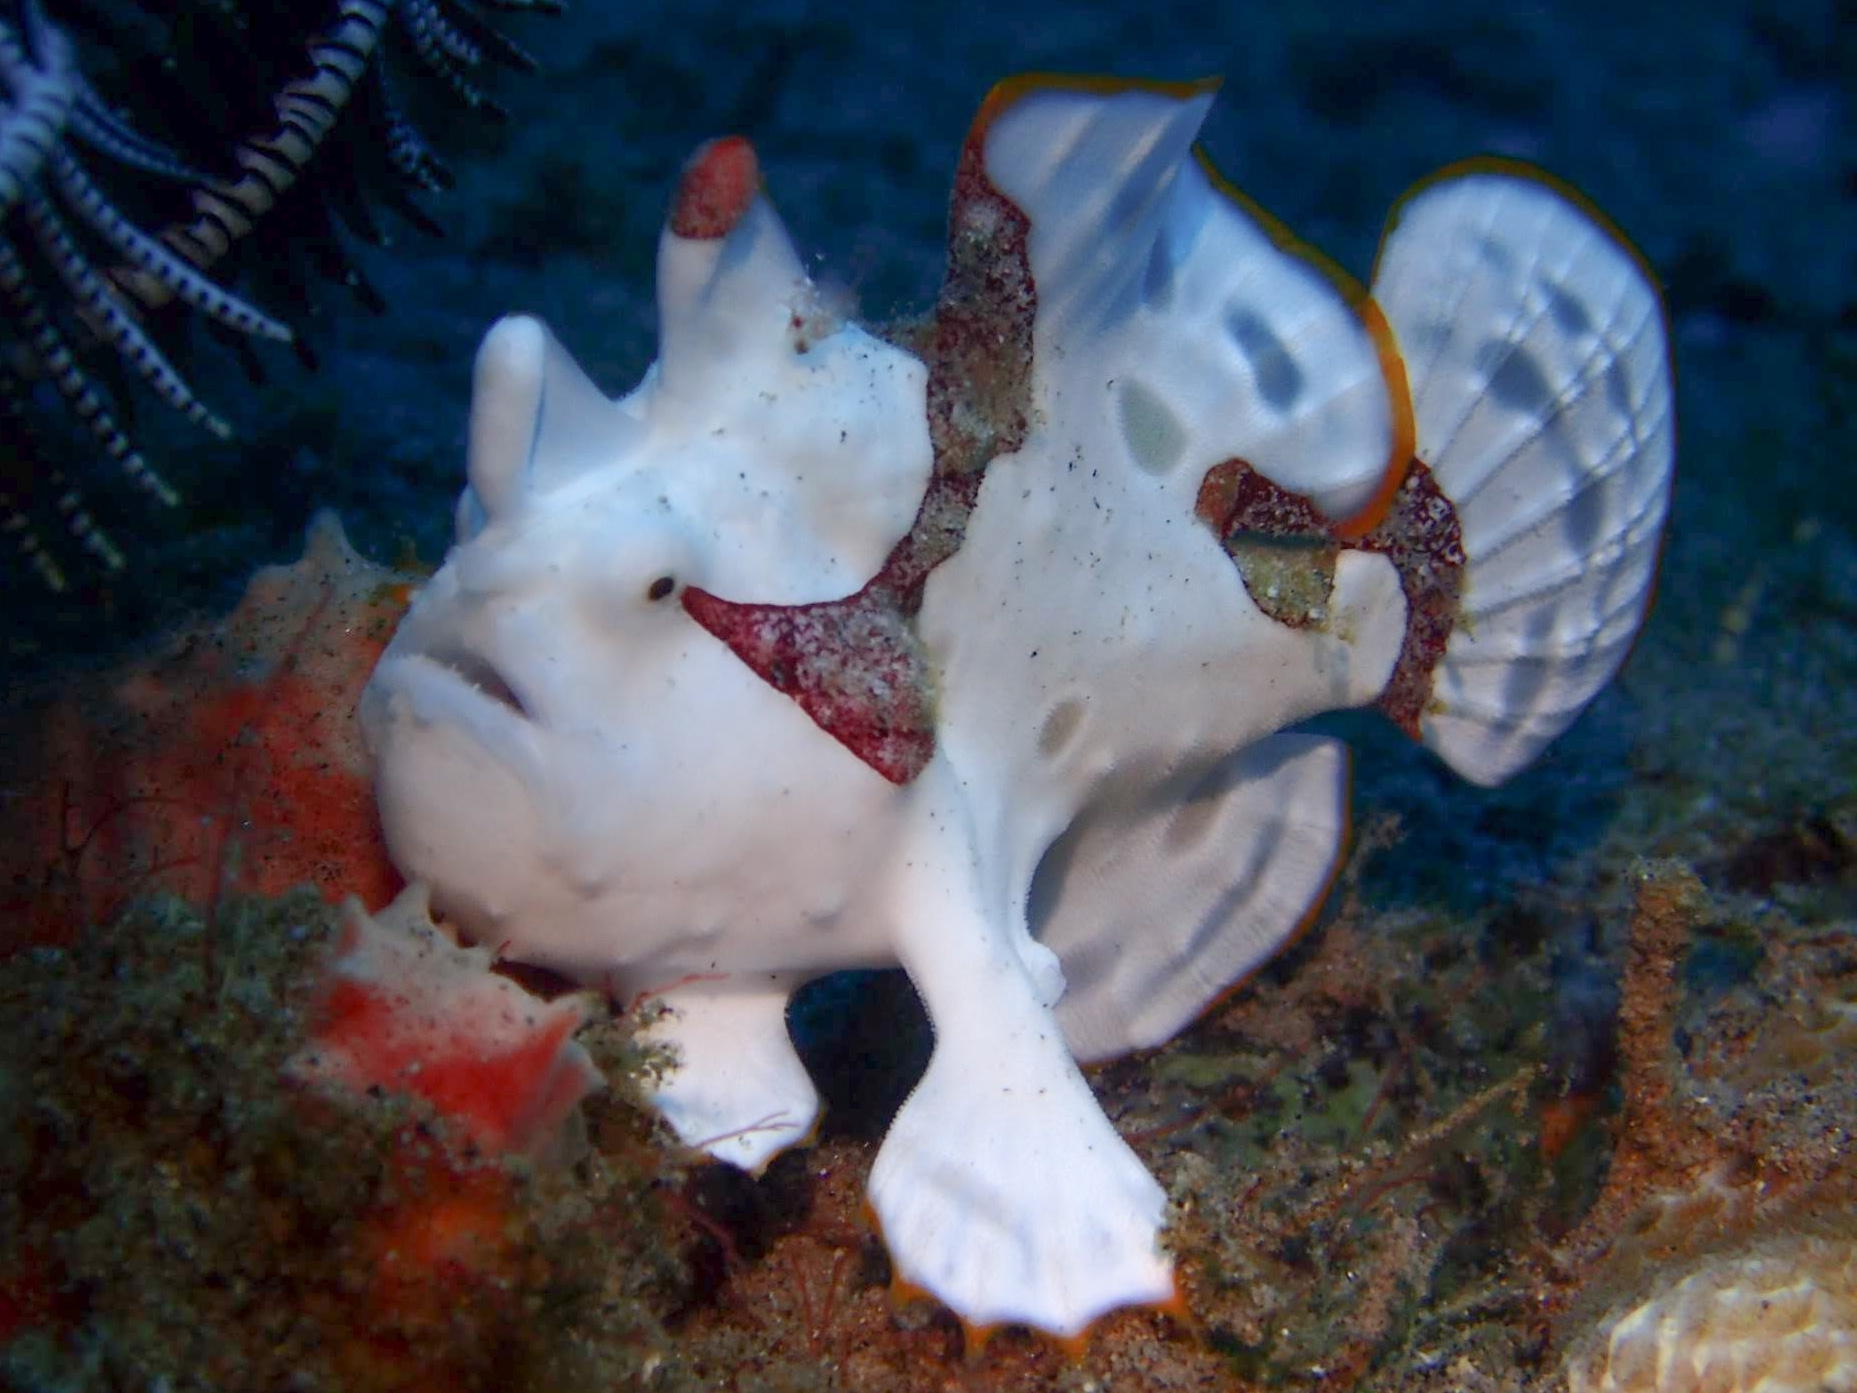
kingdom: Animalia
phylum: Chordata
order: Lophiiformes
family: Antennariidae
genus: Antennarius
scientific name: Antennarius maculatus
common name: Warty frogfish
